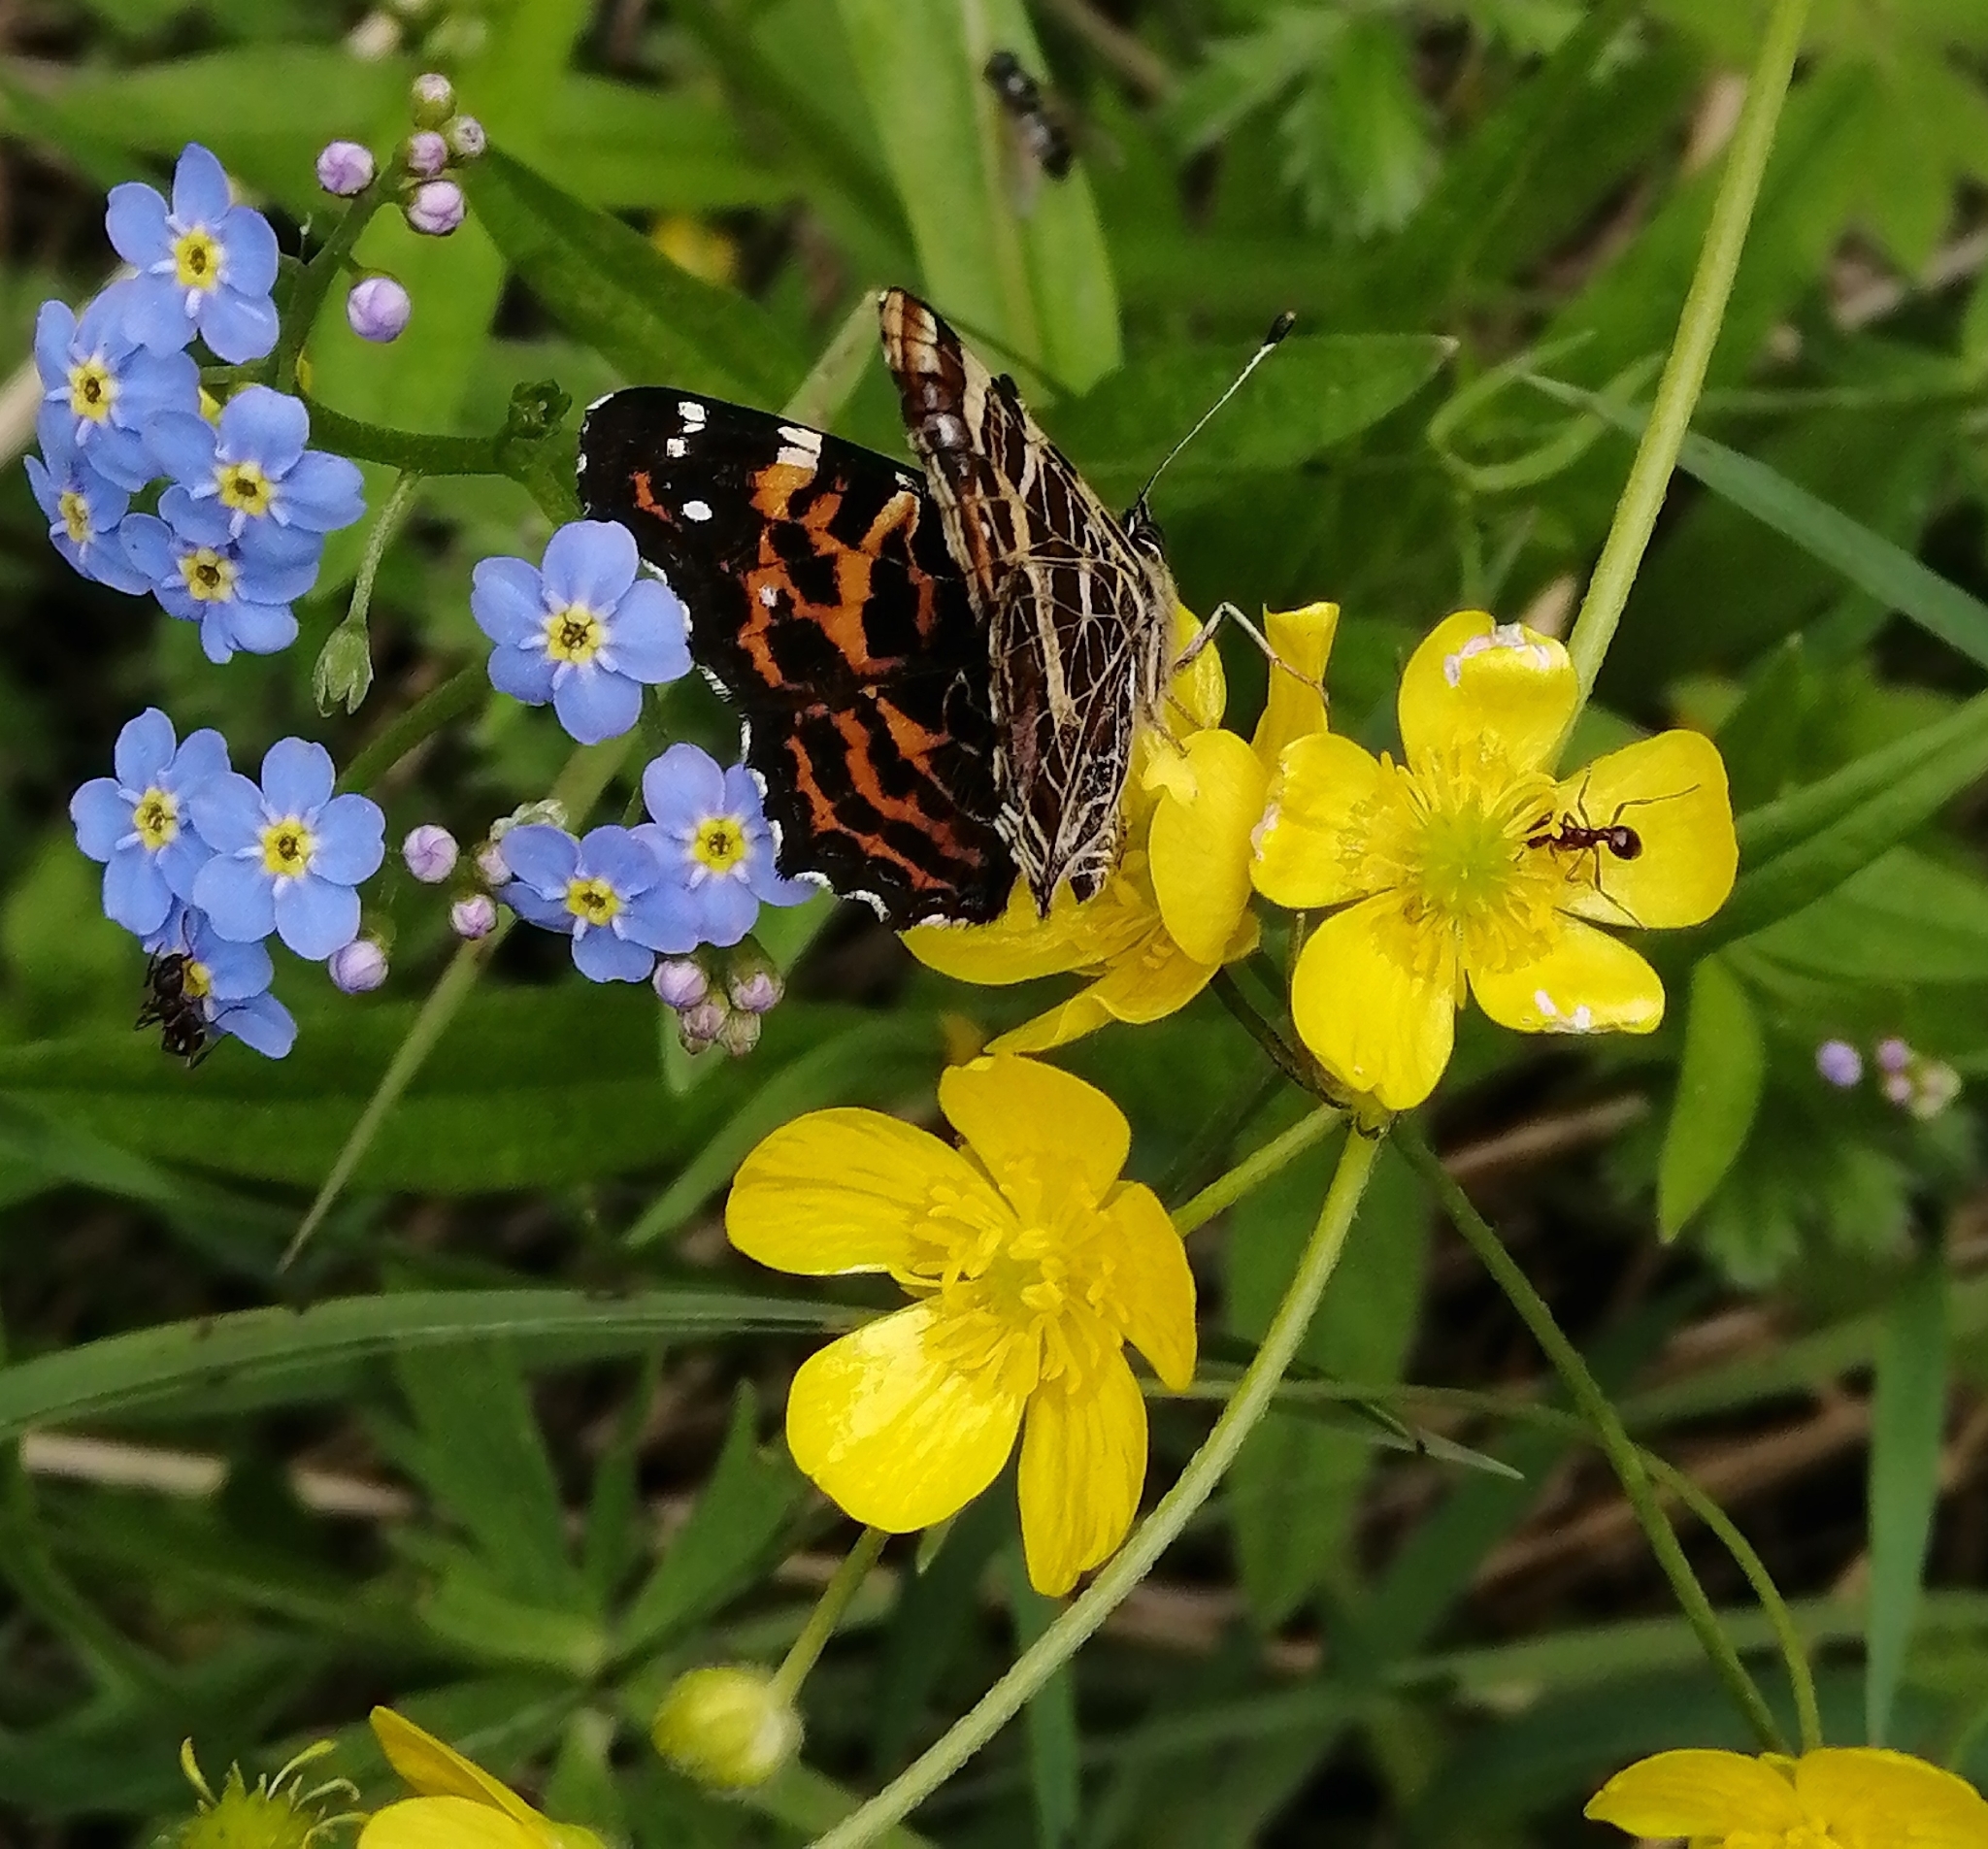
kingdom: Animalia
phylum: Arthropoda
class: Insecta
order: Lepidoptera
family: Nymphalidae
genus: Araschnia
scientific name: Araschnia levana
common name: Map butterfly
